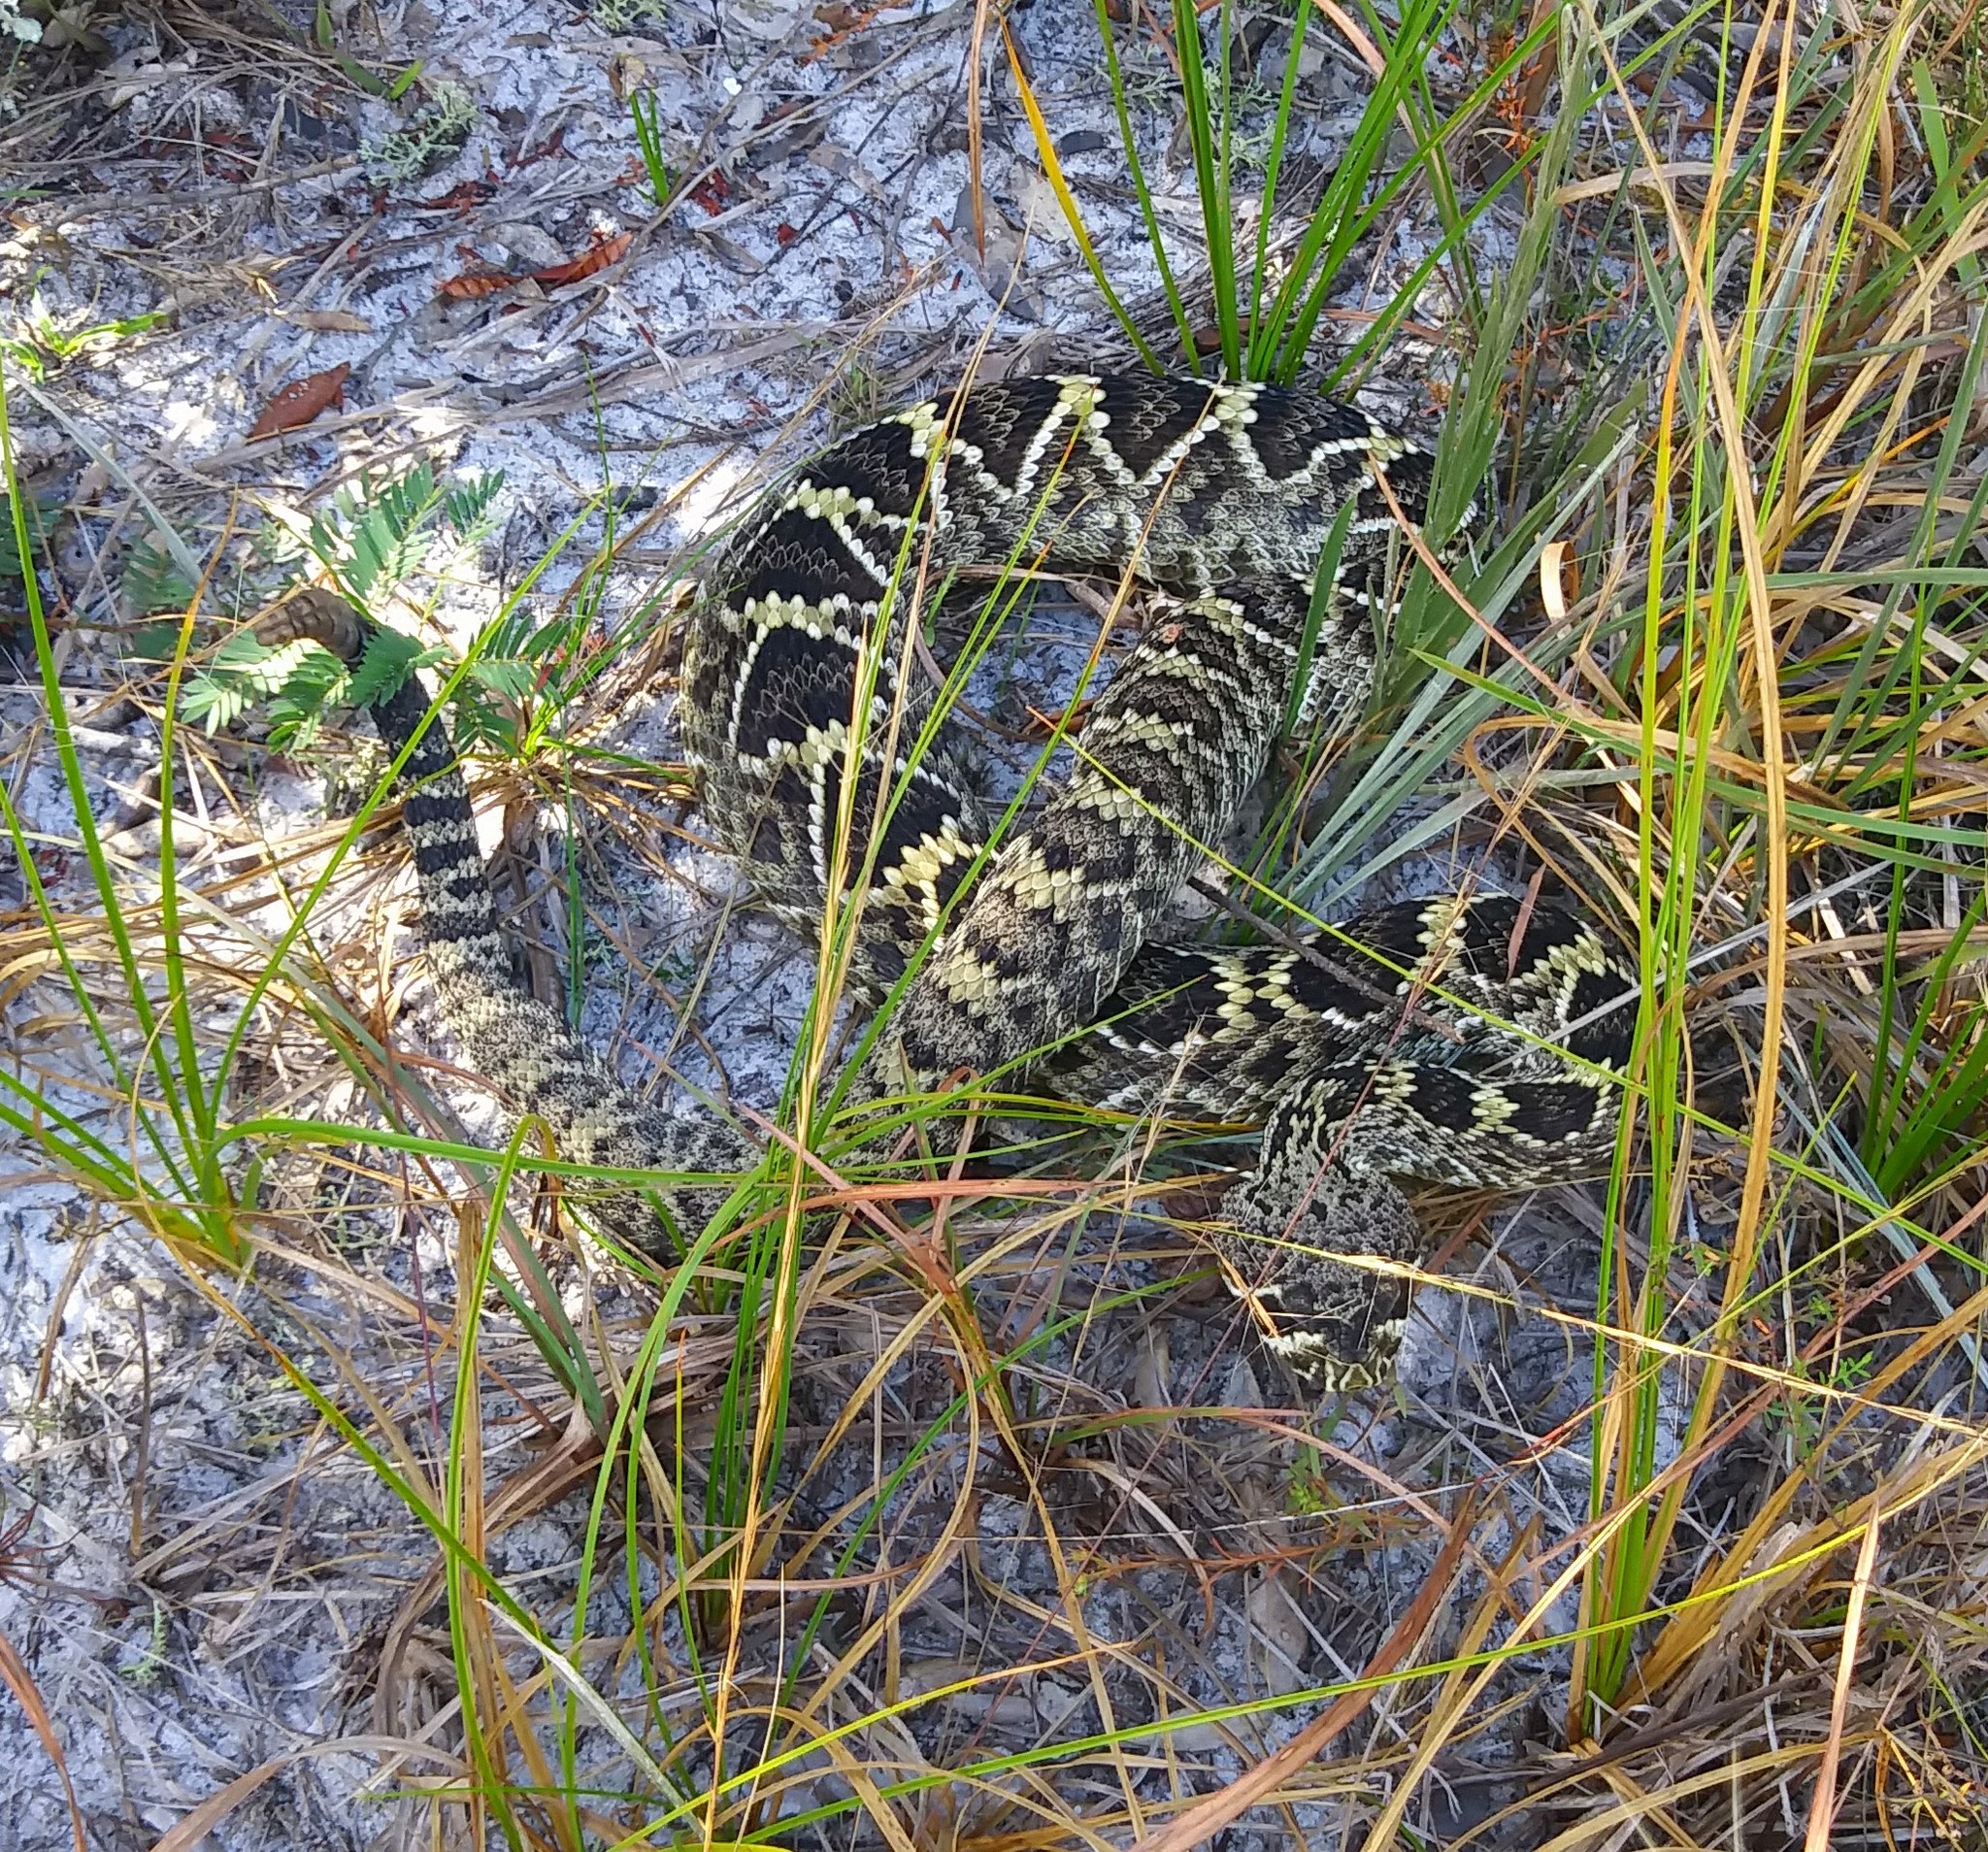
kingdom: Animalia
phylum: Chordata
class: Squamata
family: Viperidae
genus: Crotalus
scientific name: Crotalus adamanteus
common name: Eastern diamondback rattlesnake
